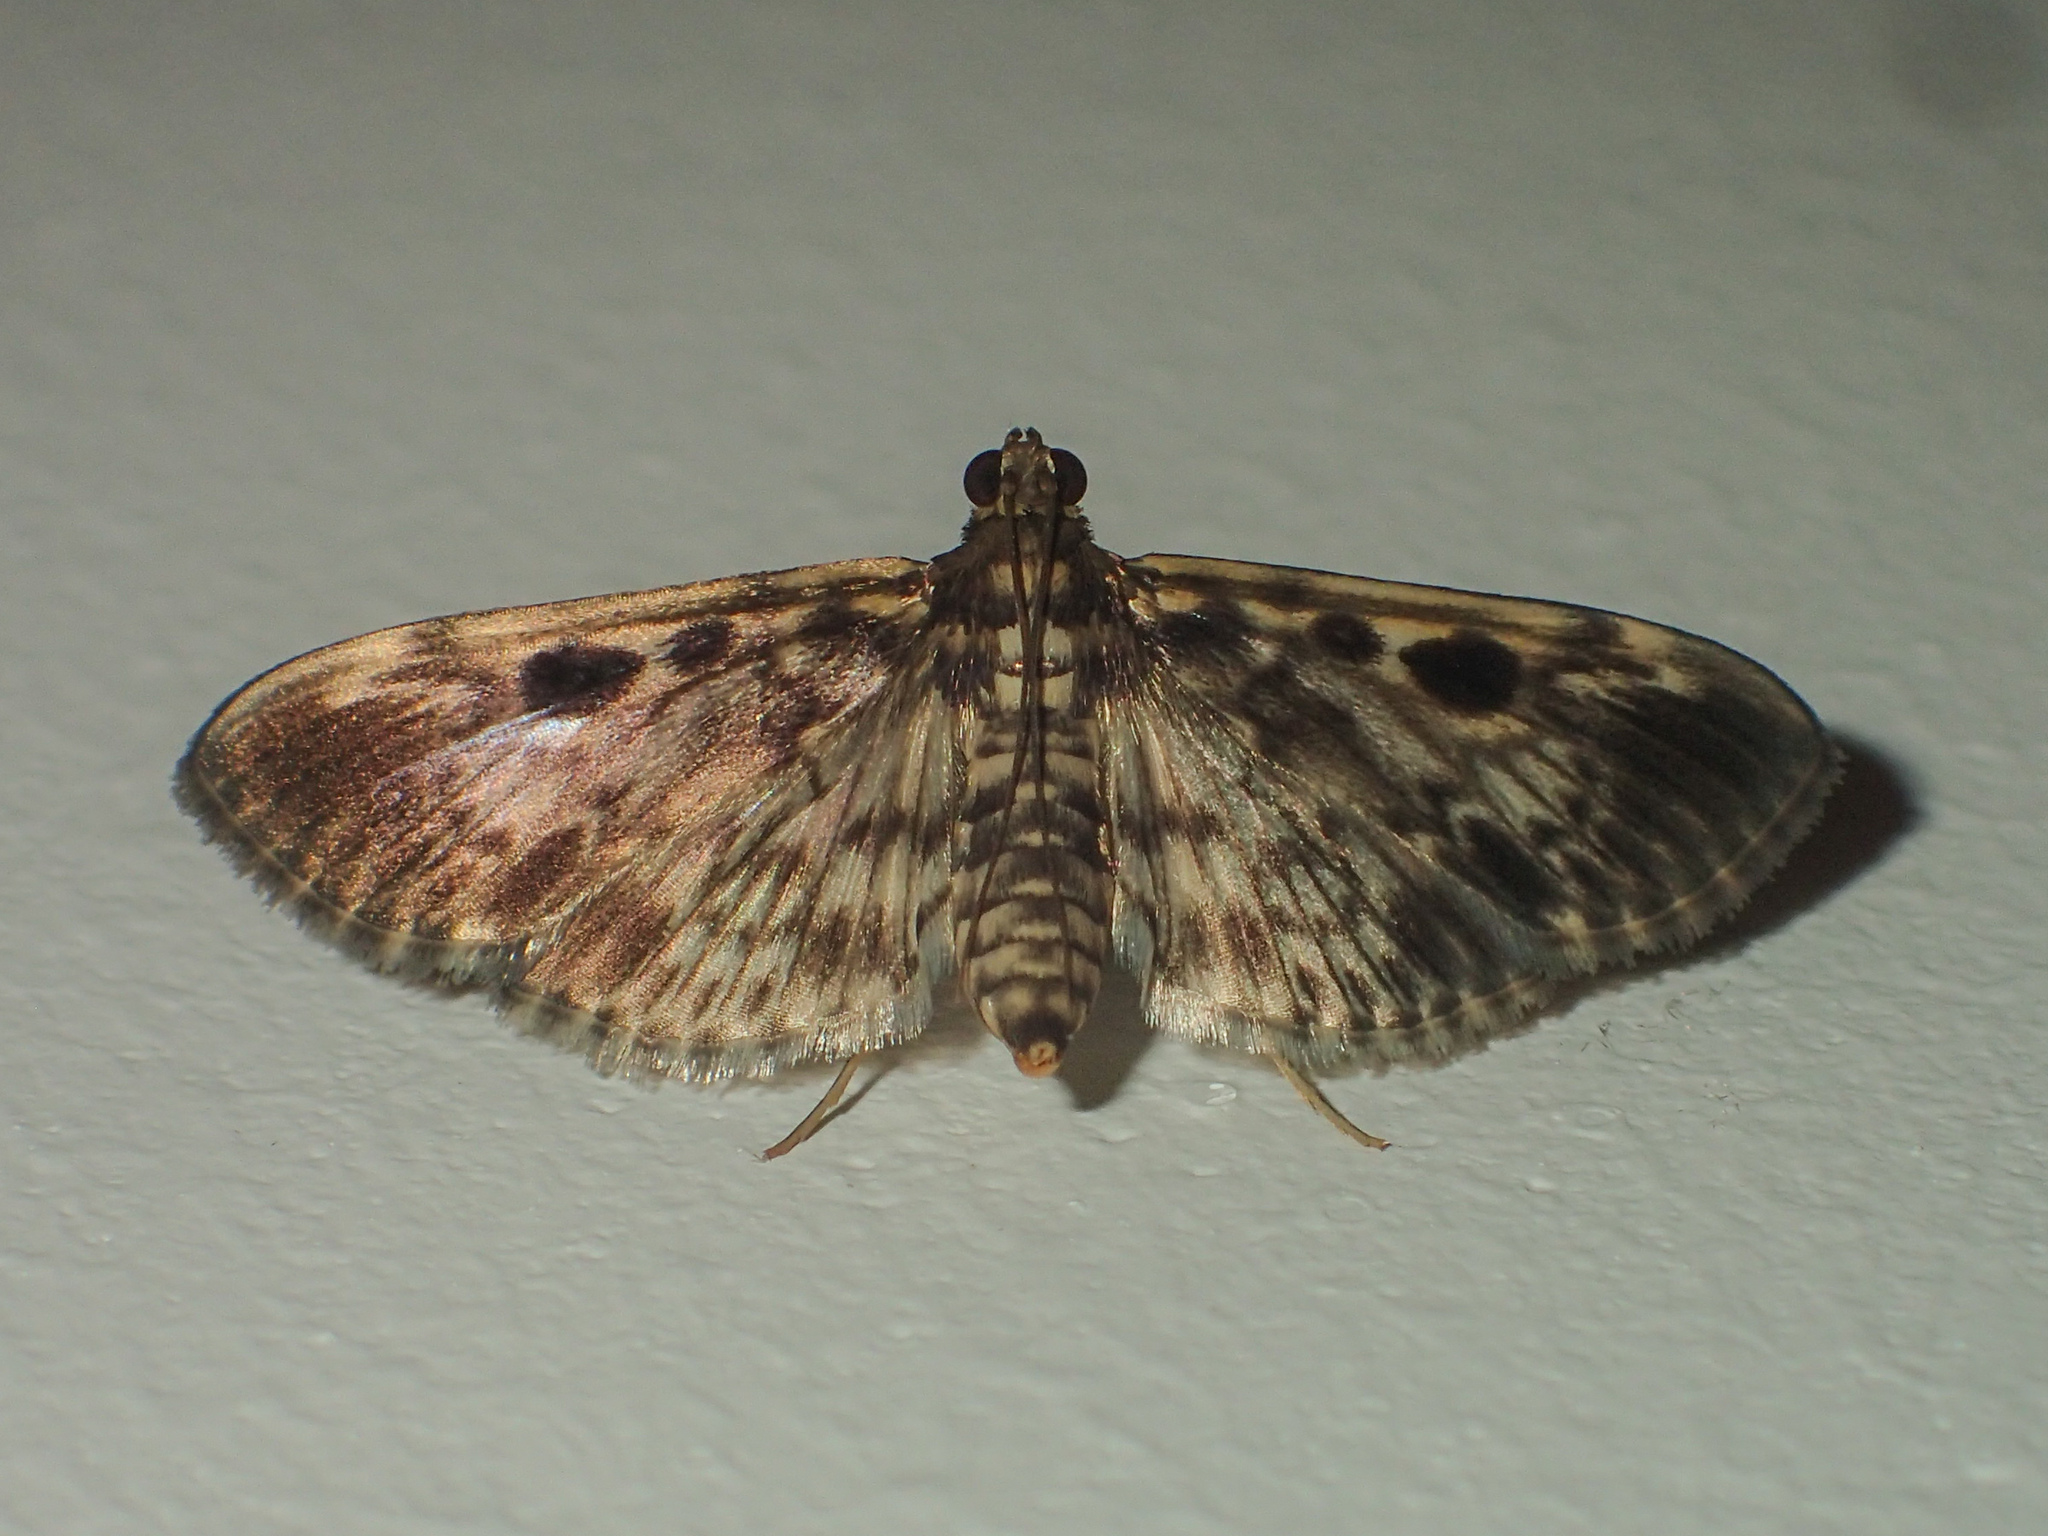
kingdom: Animalia
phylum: Arthropoda
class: Insecta
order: Lepidoptera
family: Crambidae
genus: Rhimphaliodes
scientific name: Rhimphaliodes macrostigma
